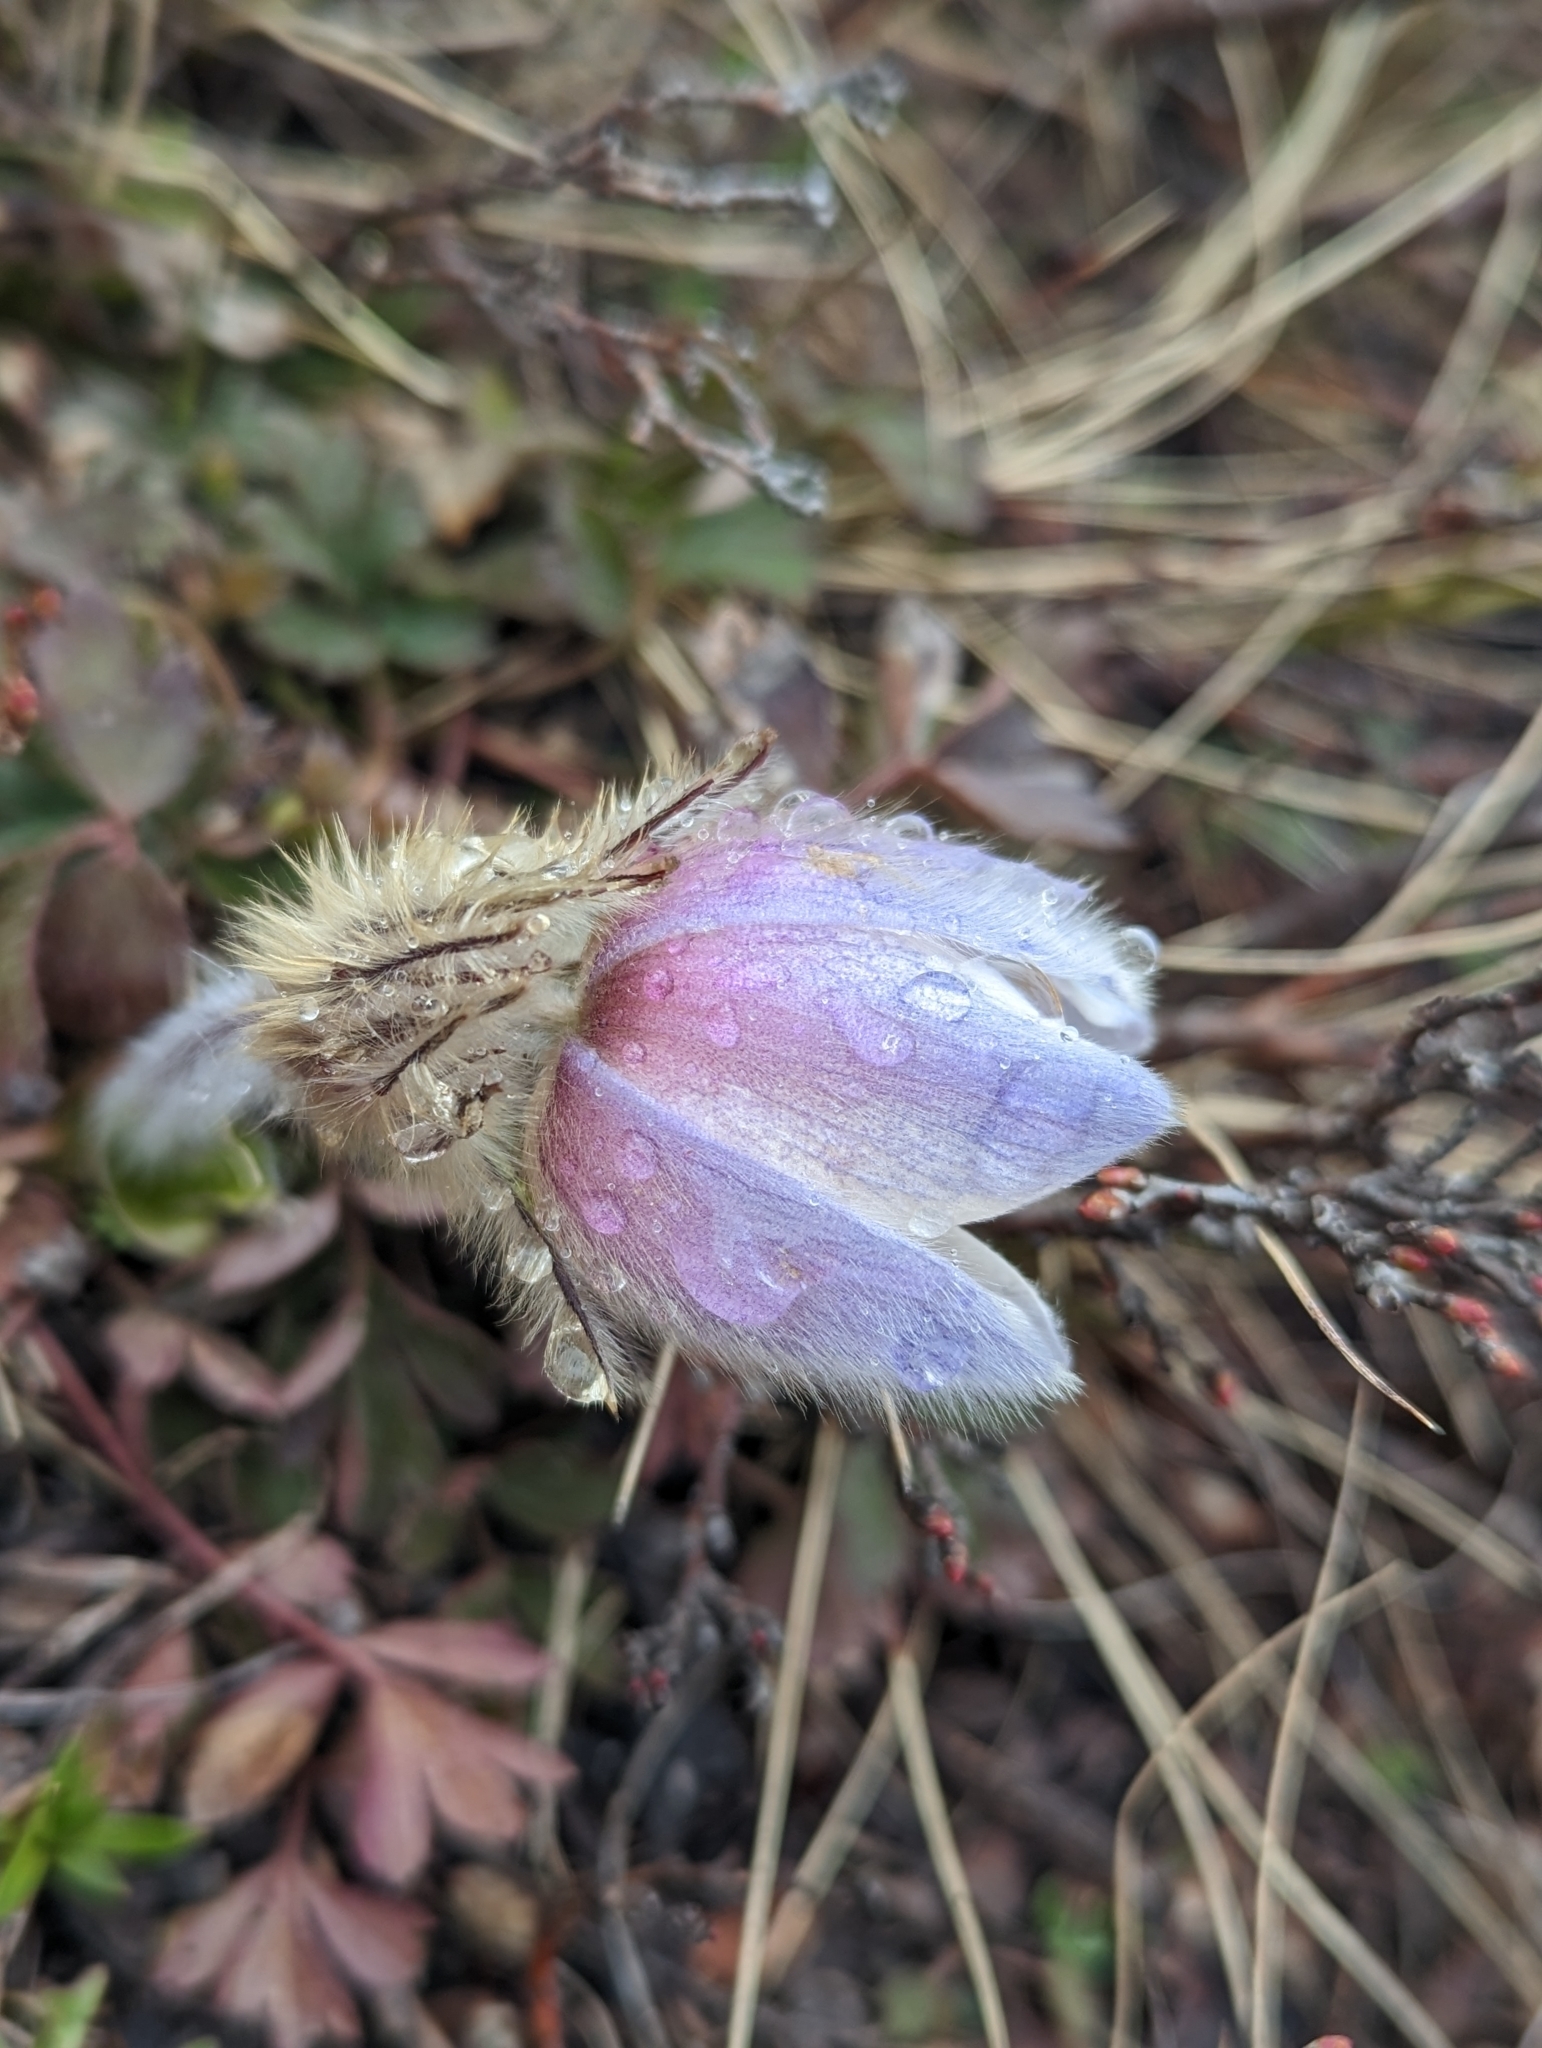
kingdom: Plantae
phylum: Tracheophyta
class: Magnoliopsida
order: Ranunculales
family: Ranunculaceae
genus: Pulsatilla
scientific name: Pulsatilla vernalis
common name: Spring pasque flower
